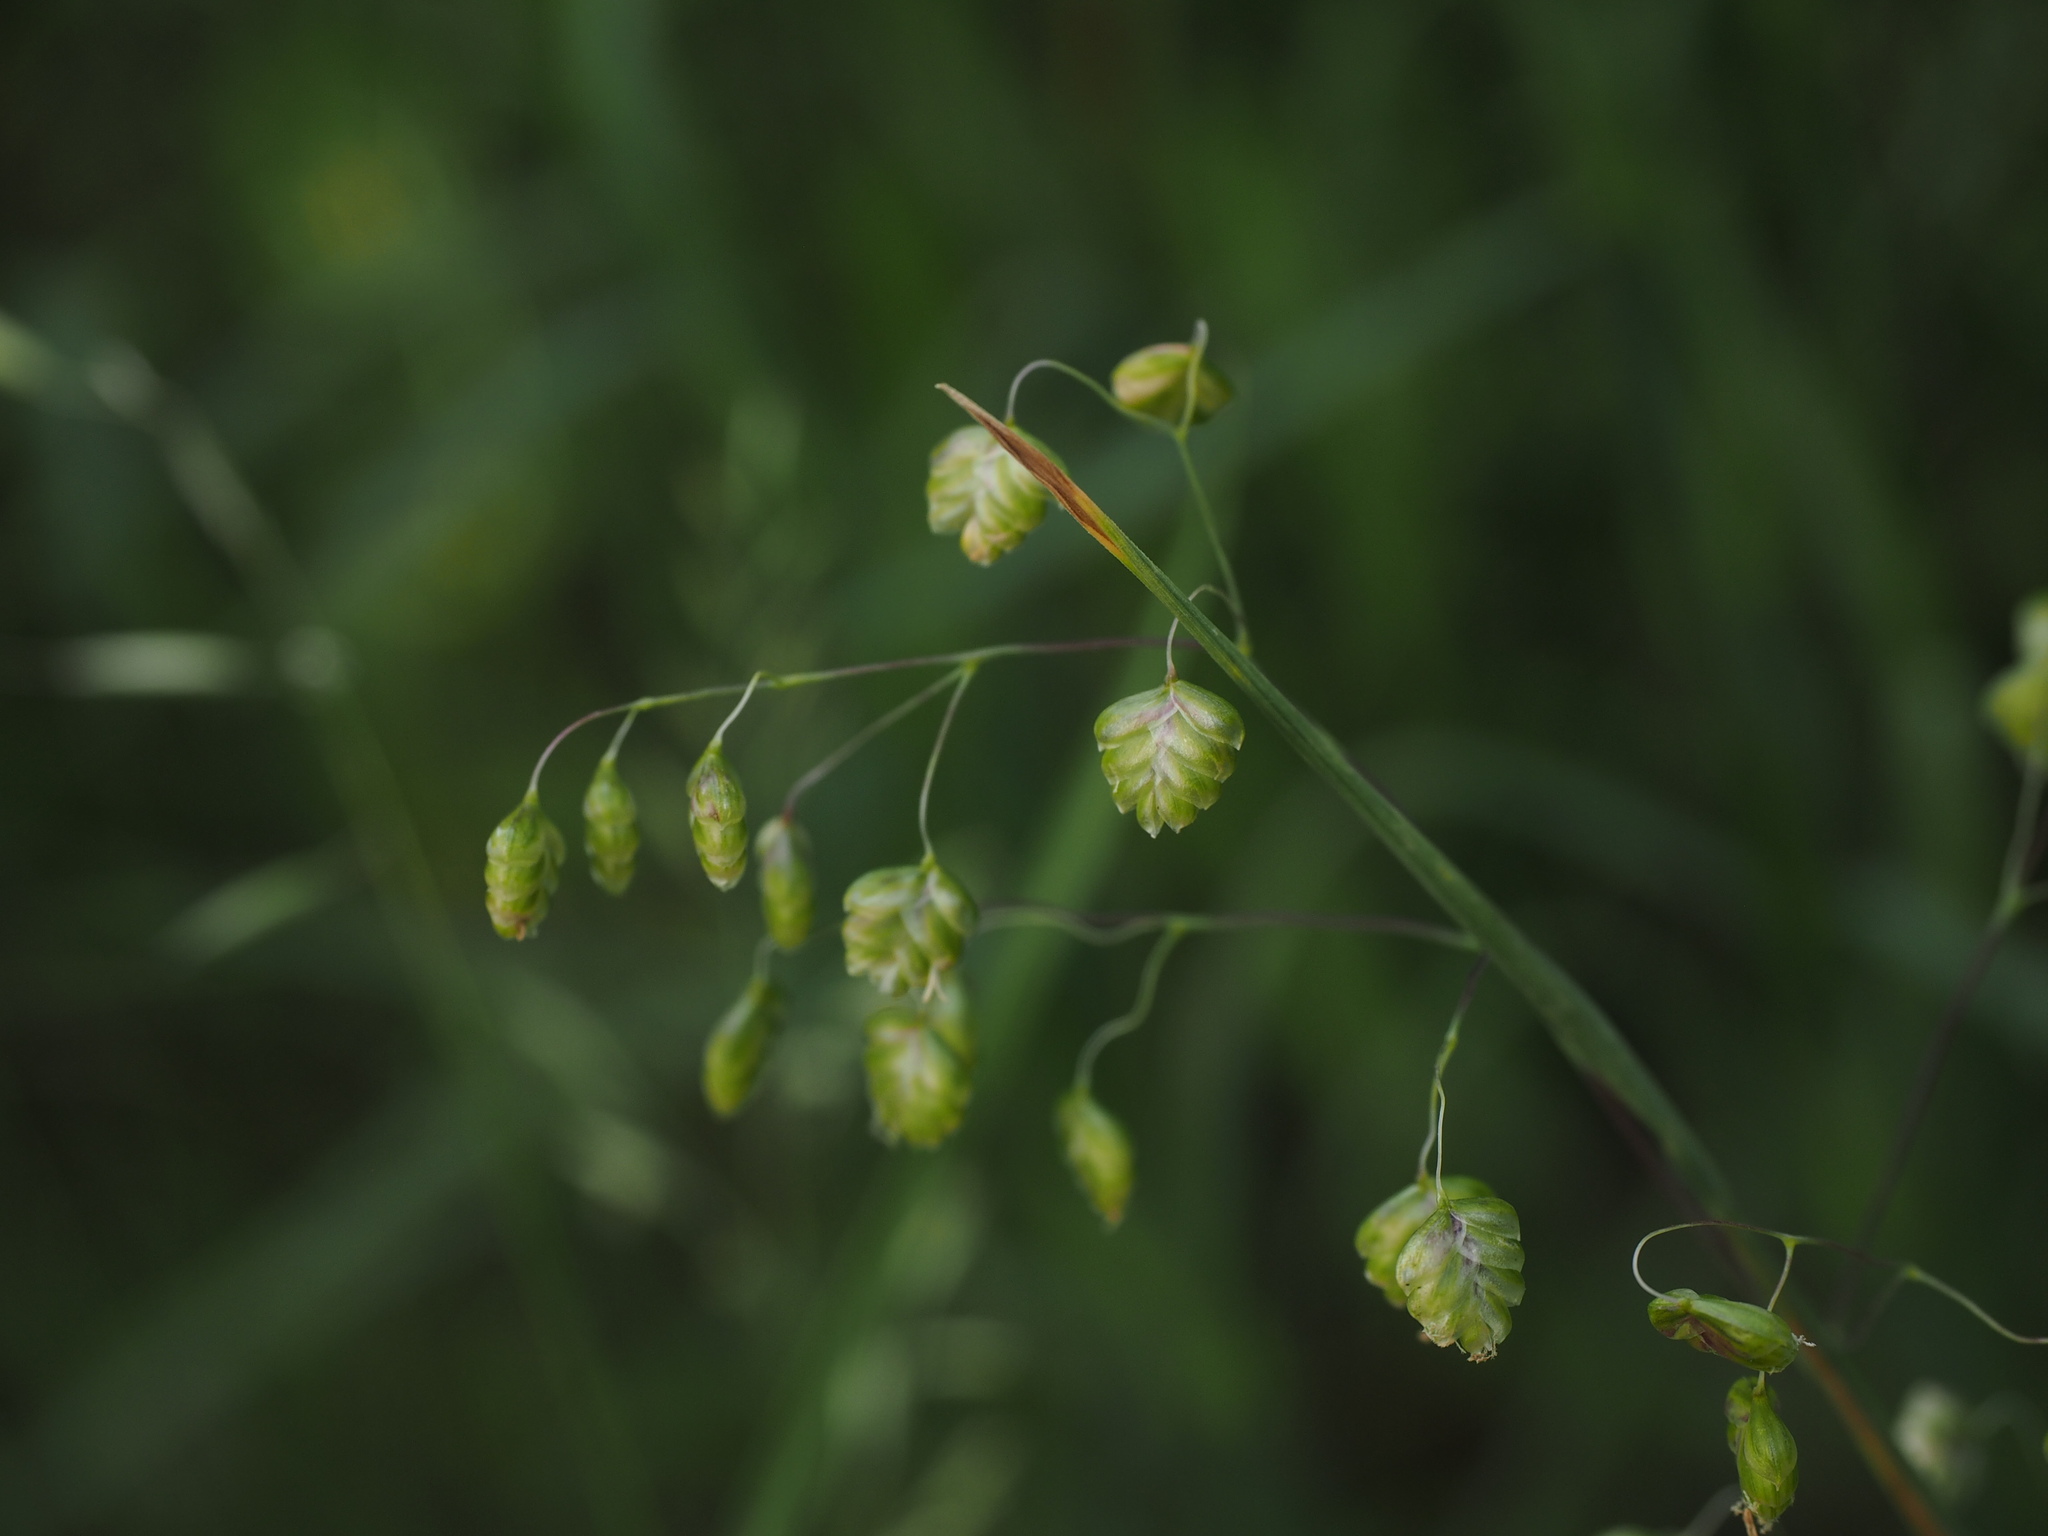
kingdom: Plantae
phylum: Tracheophyta
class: Liliopsida
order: Poales
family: Poaceae
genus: Briza
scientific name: Briza media
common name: Quaking grass
